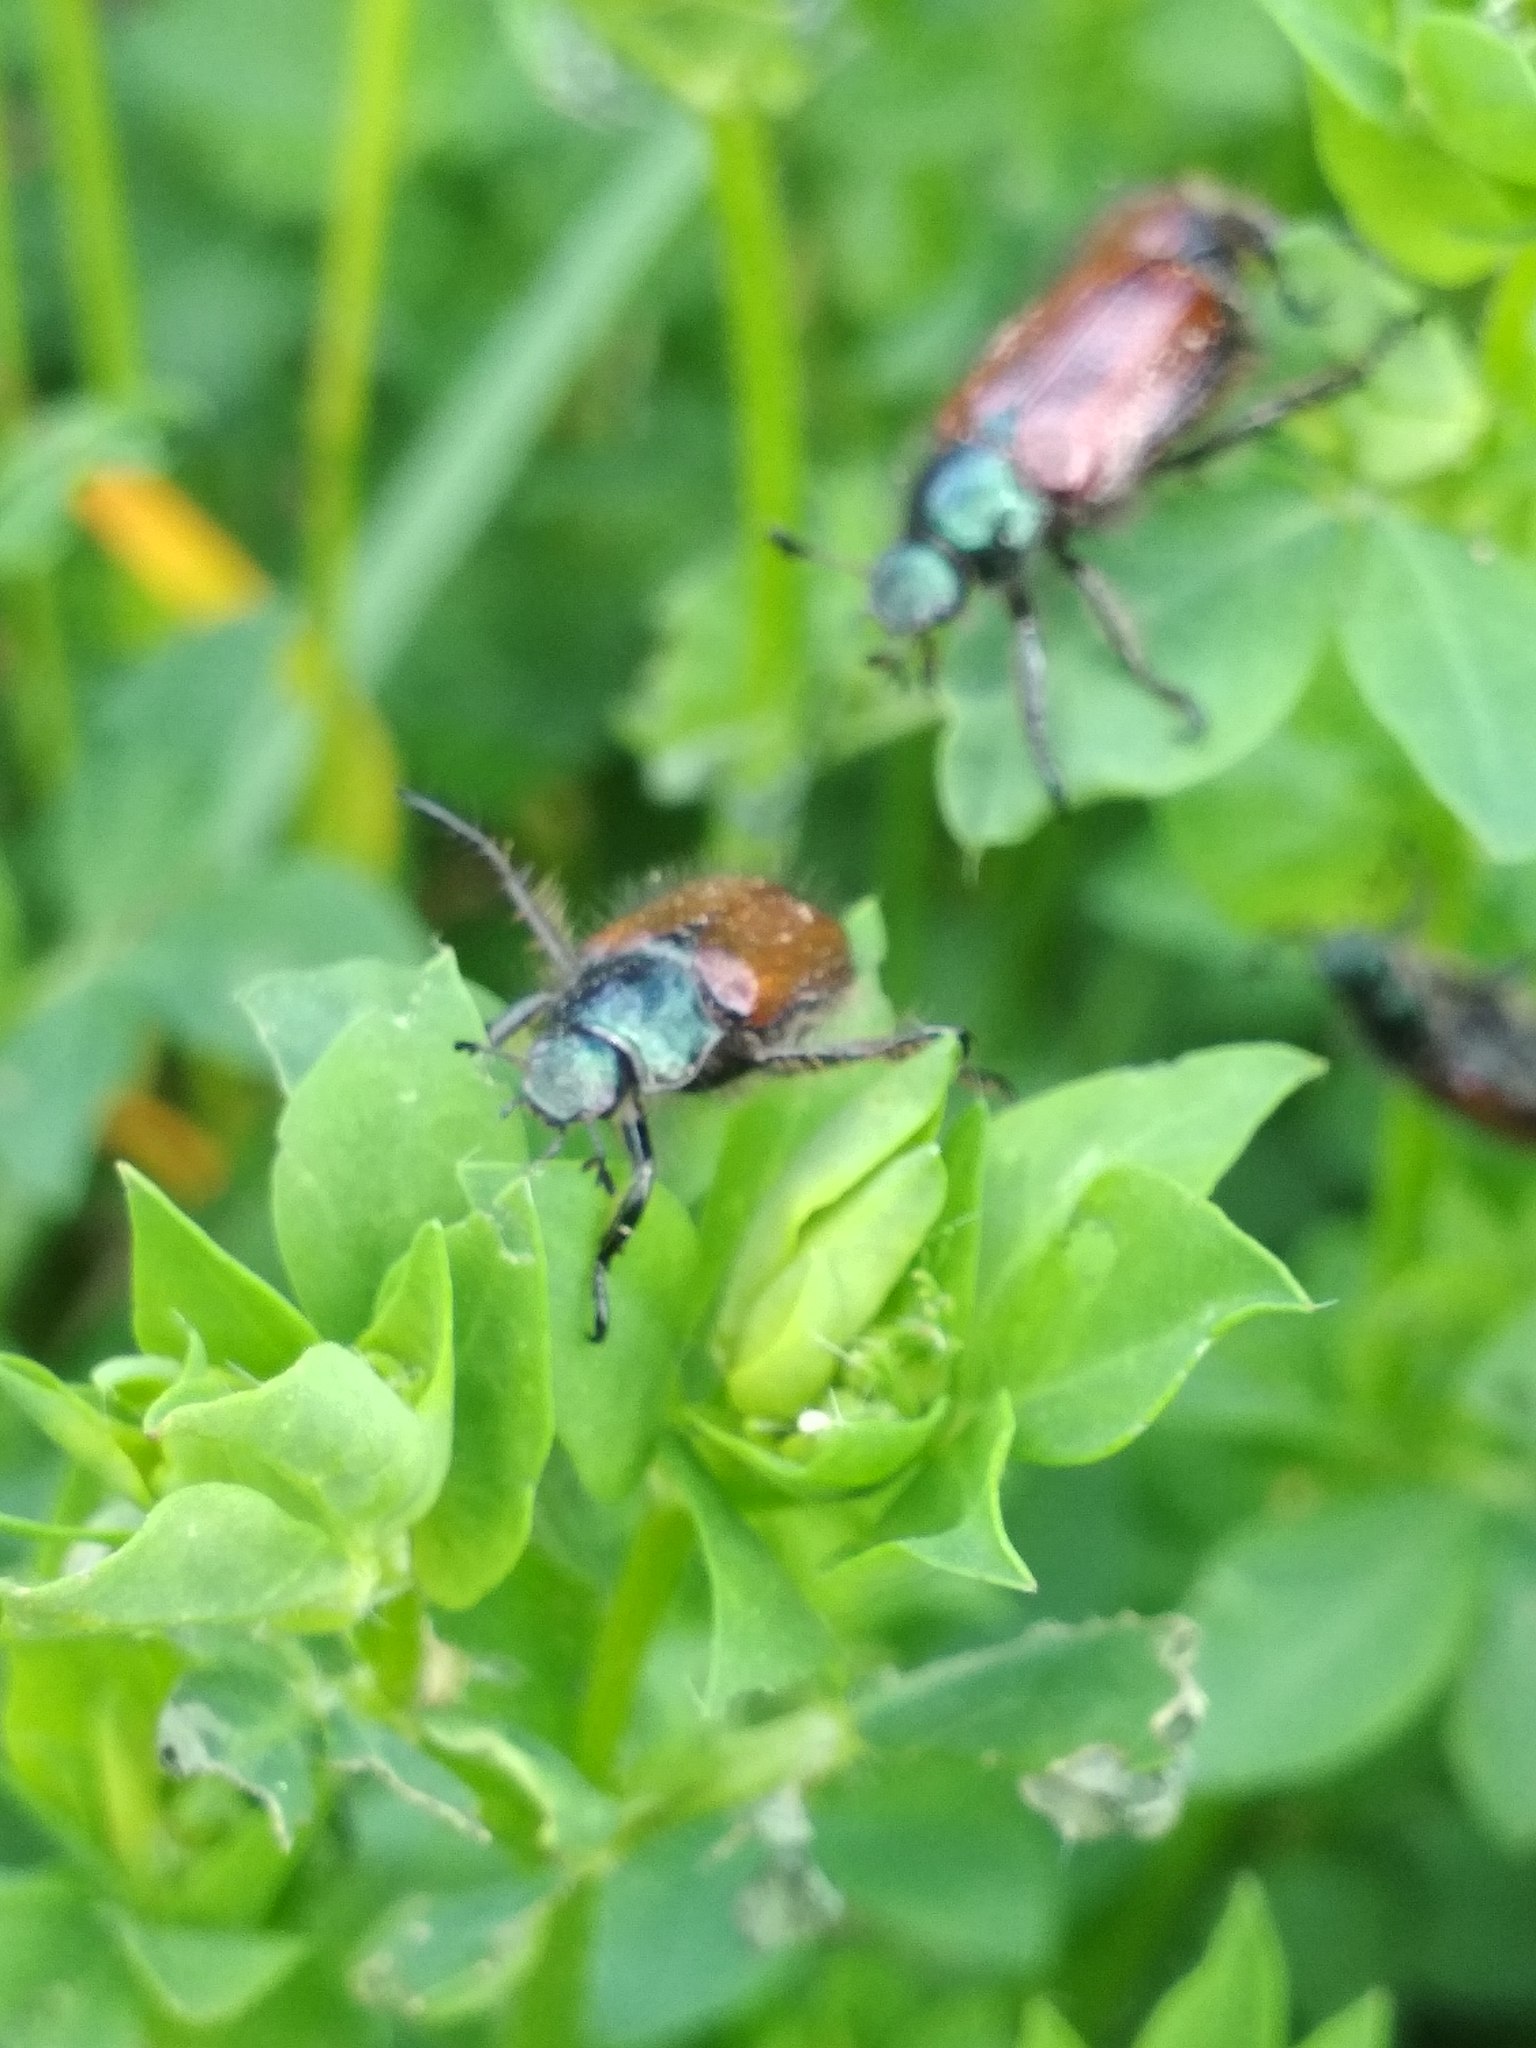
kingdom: Animalia
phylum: Arthropoda
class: Insecta
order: Coleoptera
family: Scarabaeidae
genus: Phyllopertha
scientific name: Phyllopertha horticola
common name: Garden chafer
